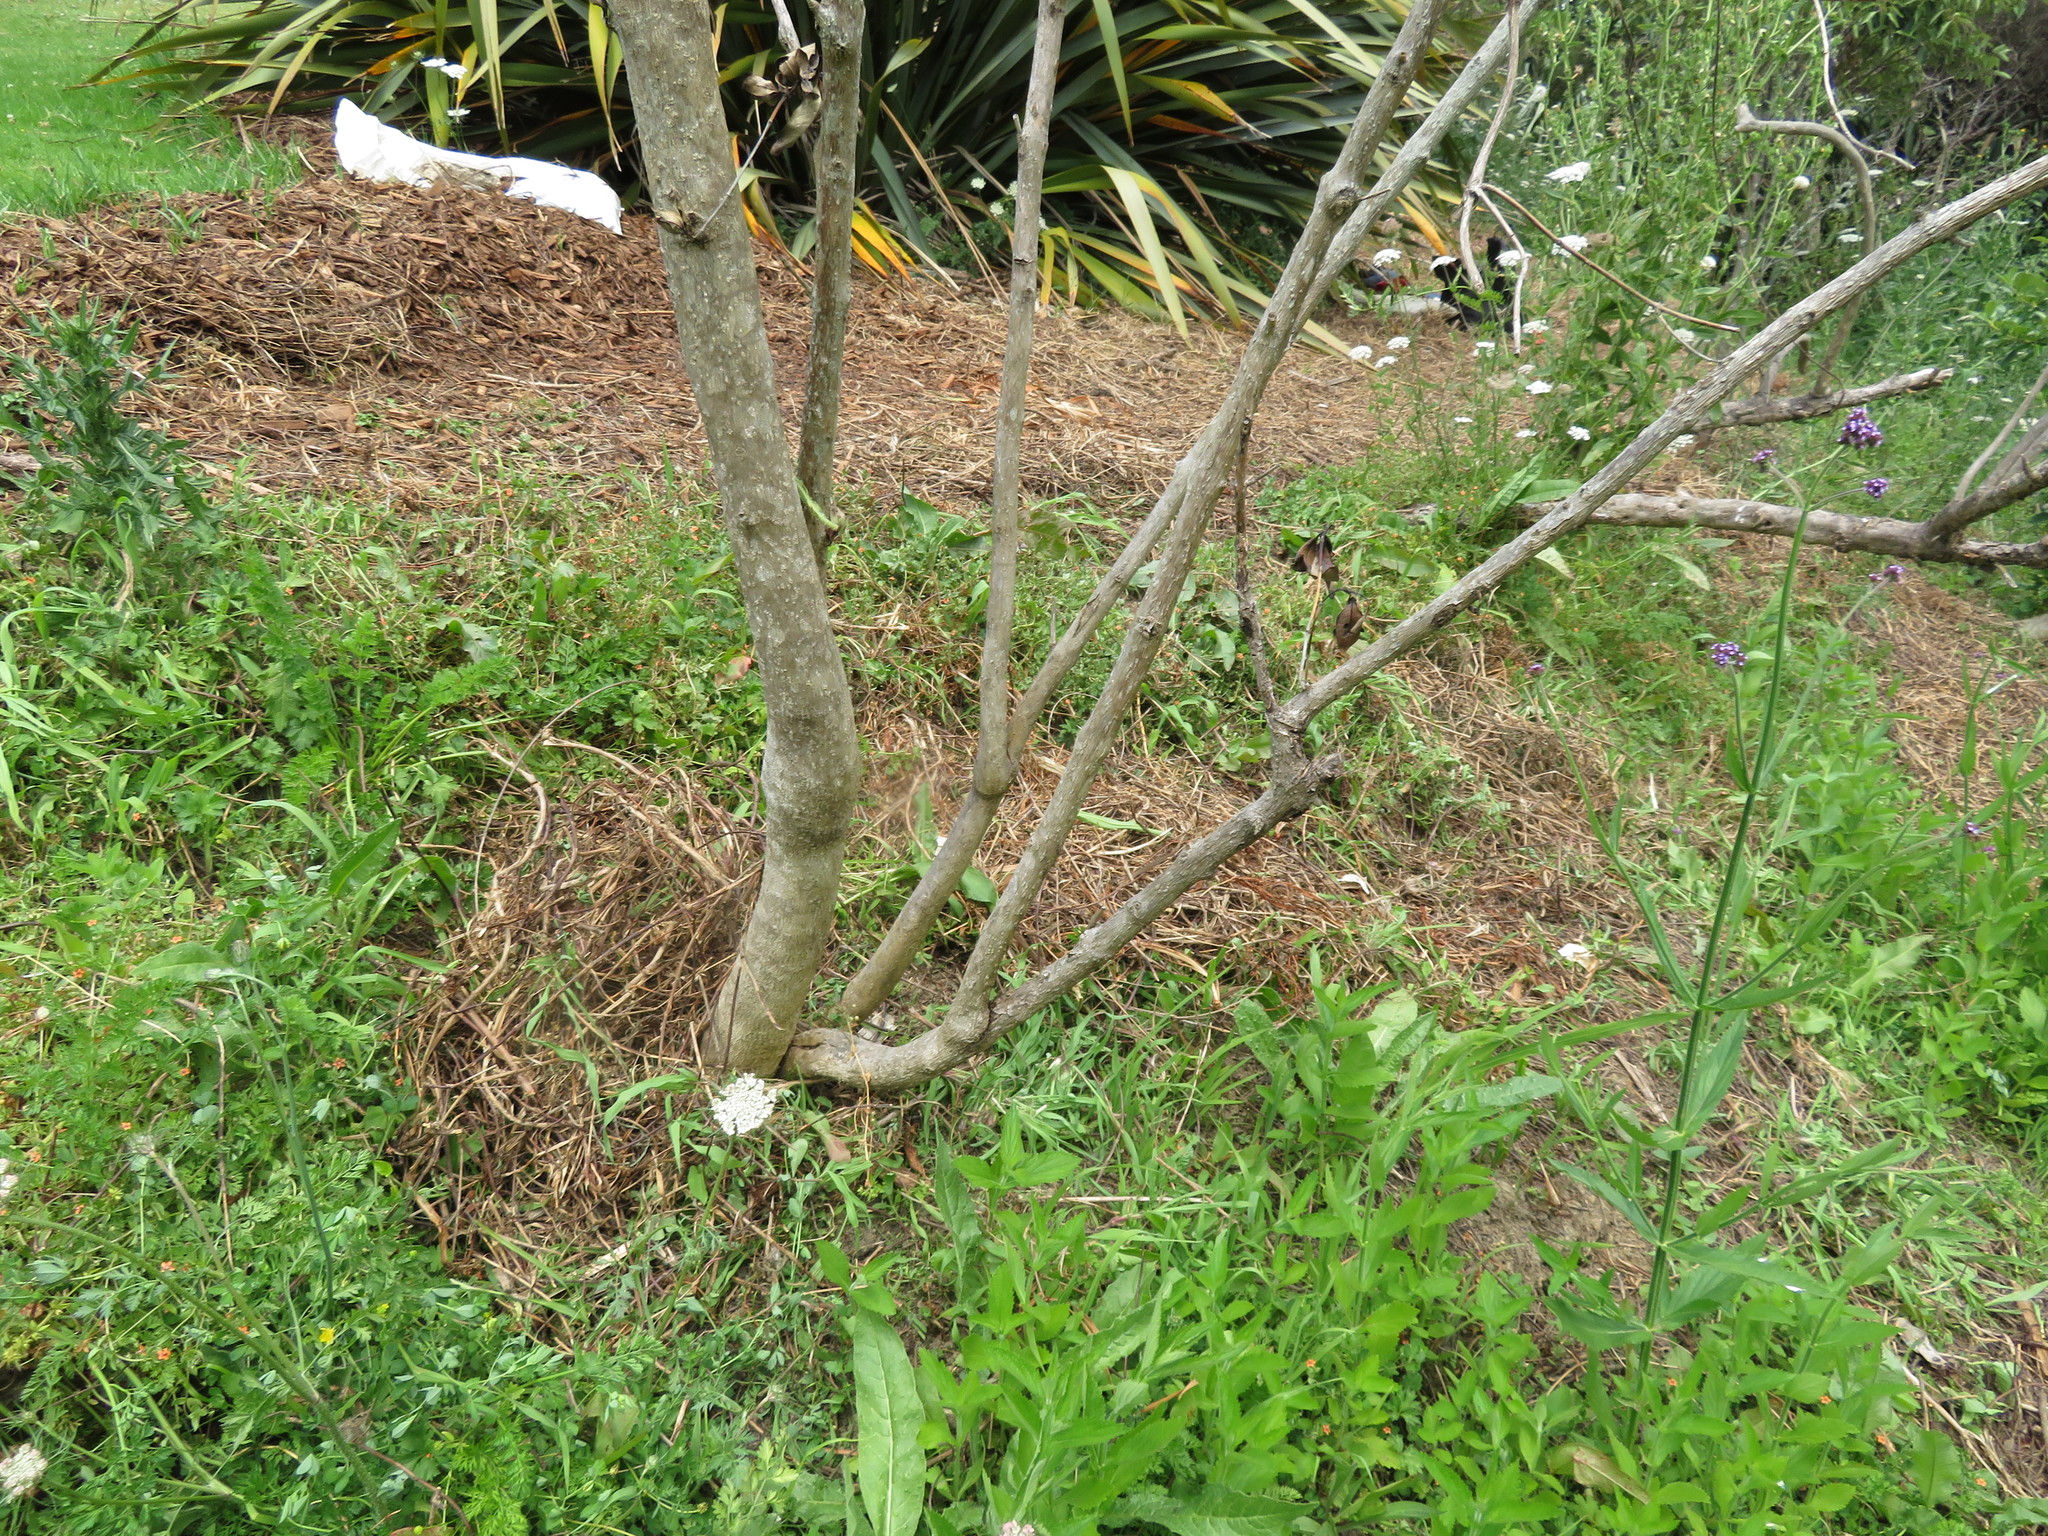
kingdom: Plantae
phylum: Tracheophyta
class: Magnoliopsida
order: Lamiales
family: Verbenaceae
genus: Verbena
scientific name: Verbena incompta
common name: Purpletop vervain
